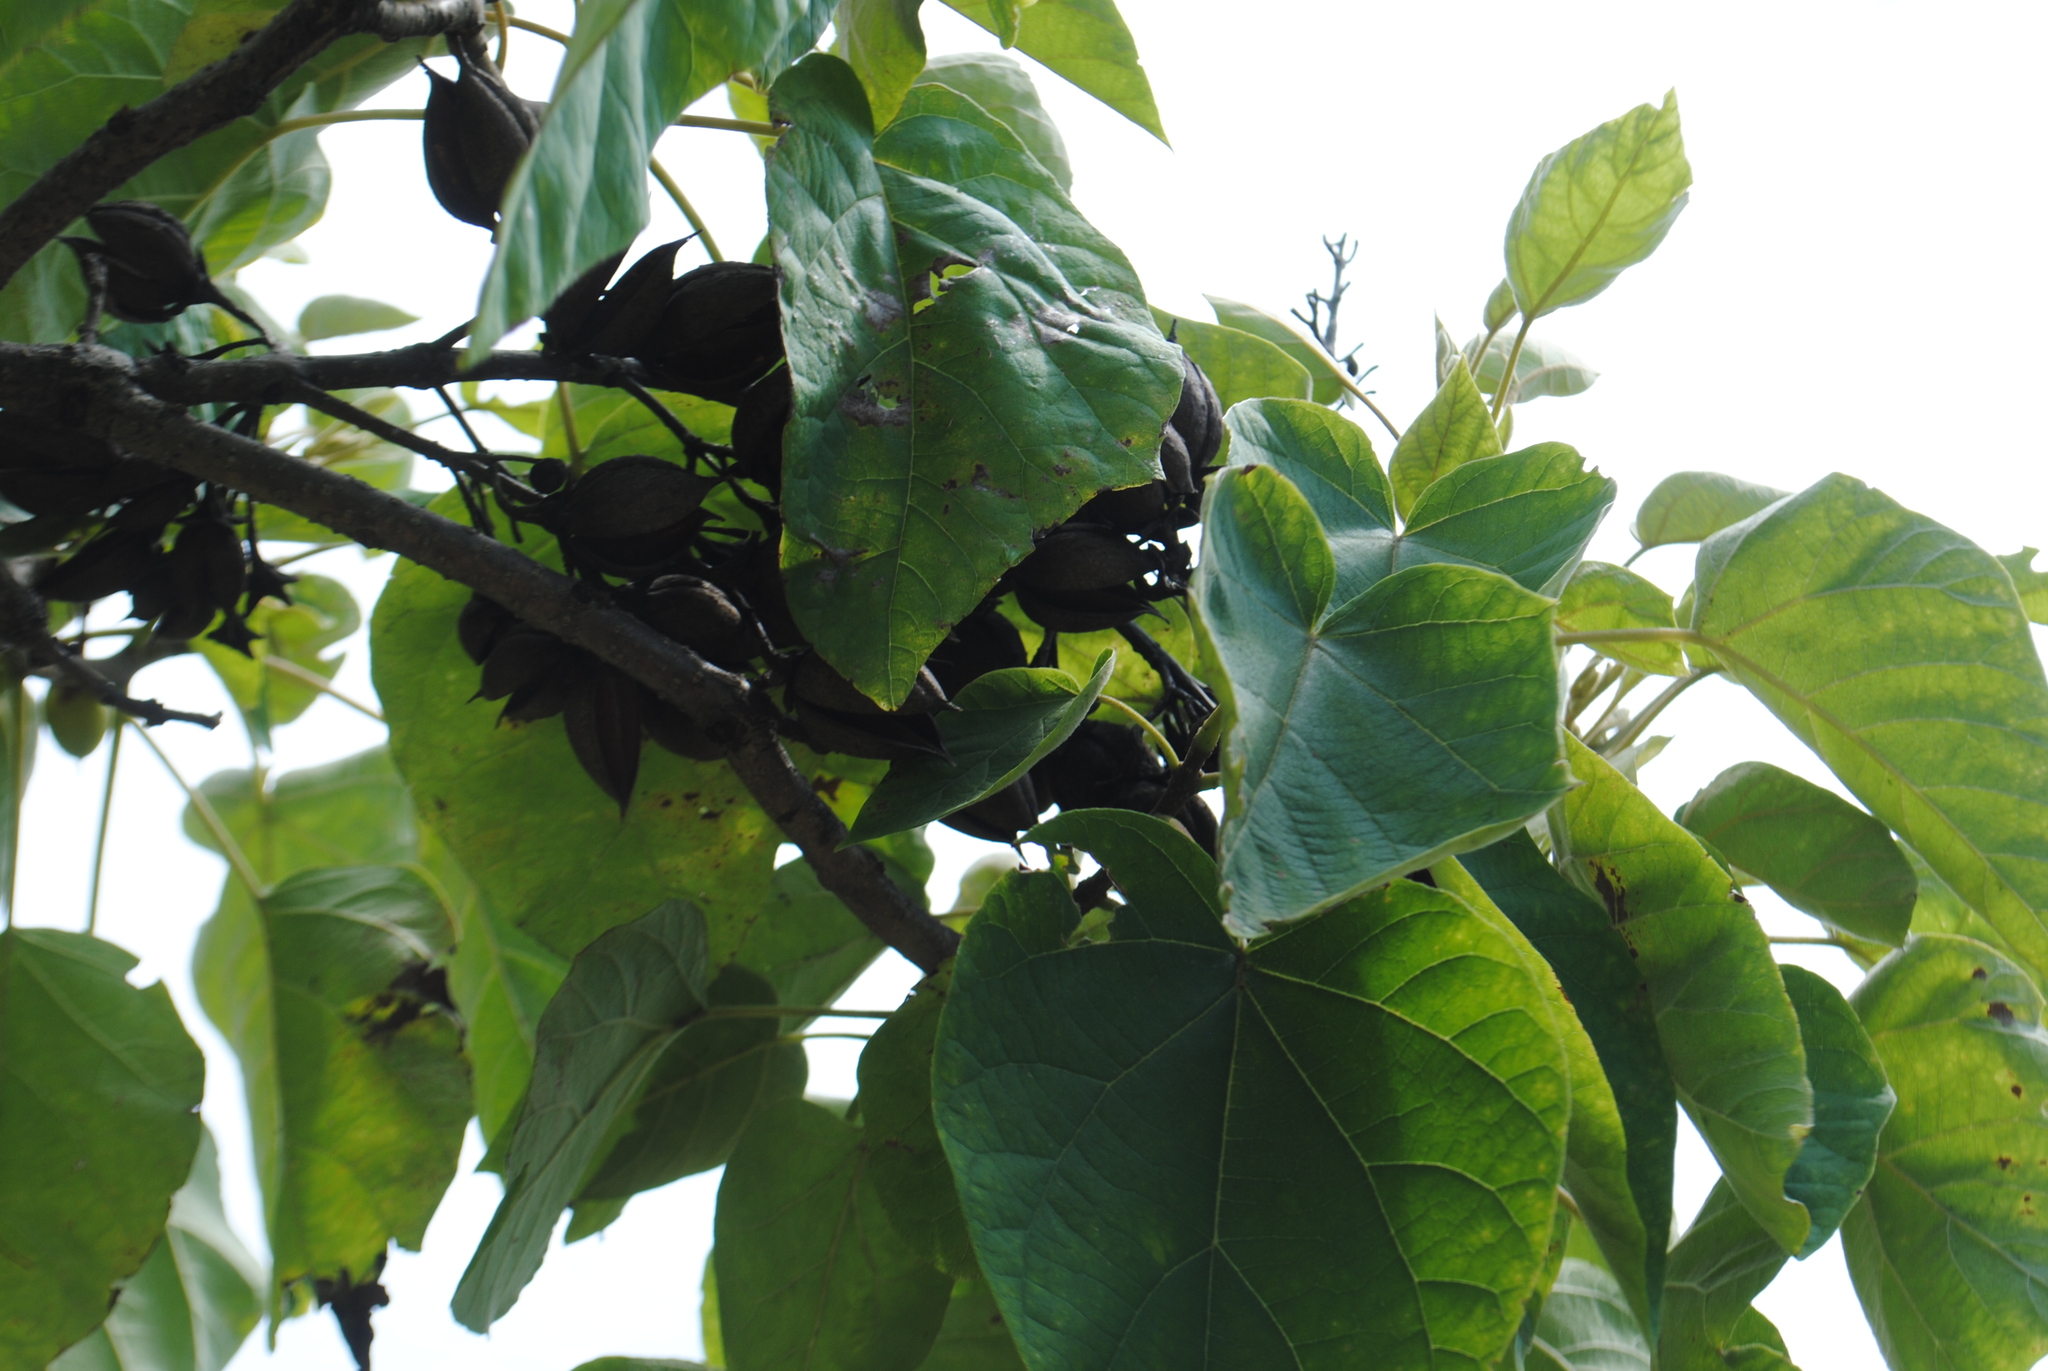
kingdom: Plantae
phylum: Tracheophyta
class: Magnoliopsida
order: Lamiales
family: Paulowniaceae
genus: Paulownia
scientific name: Paulownia tomentosa
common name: Foxglove-tree
